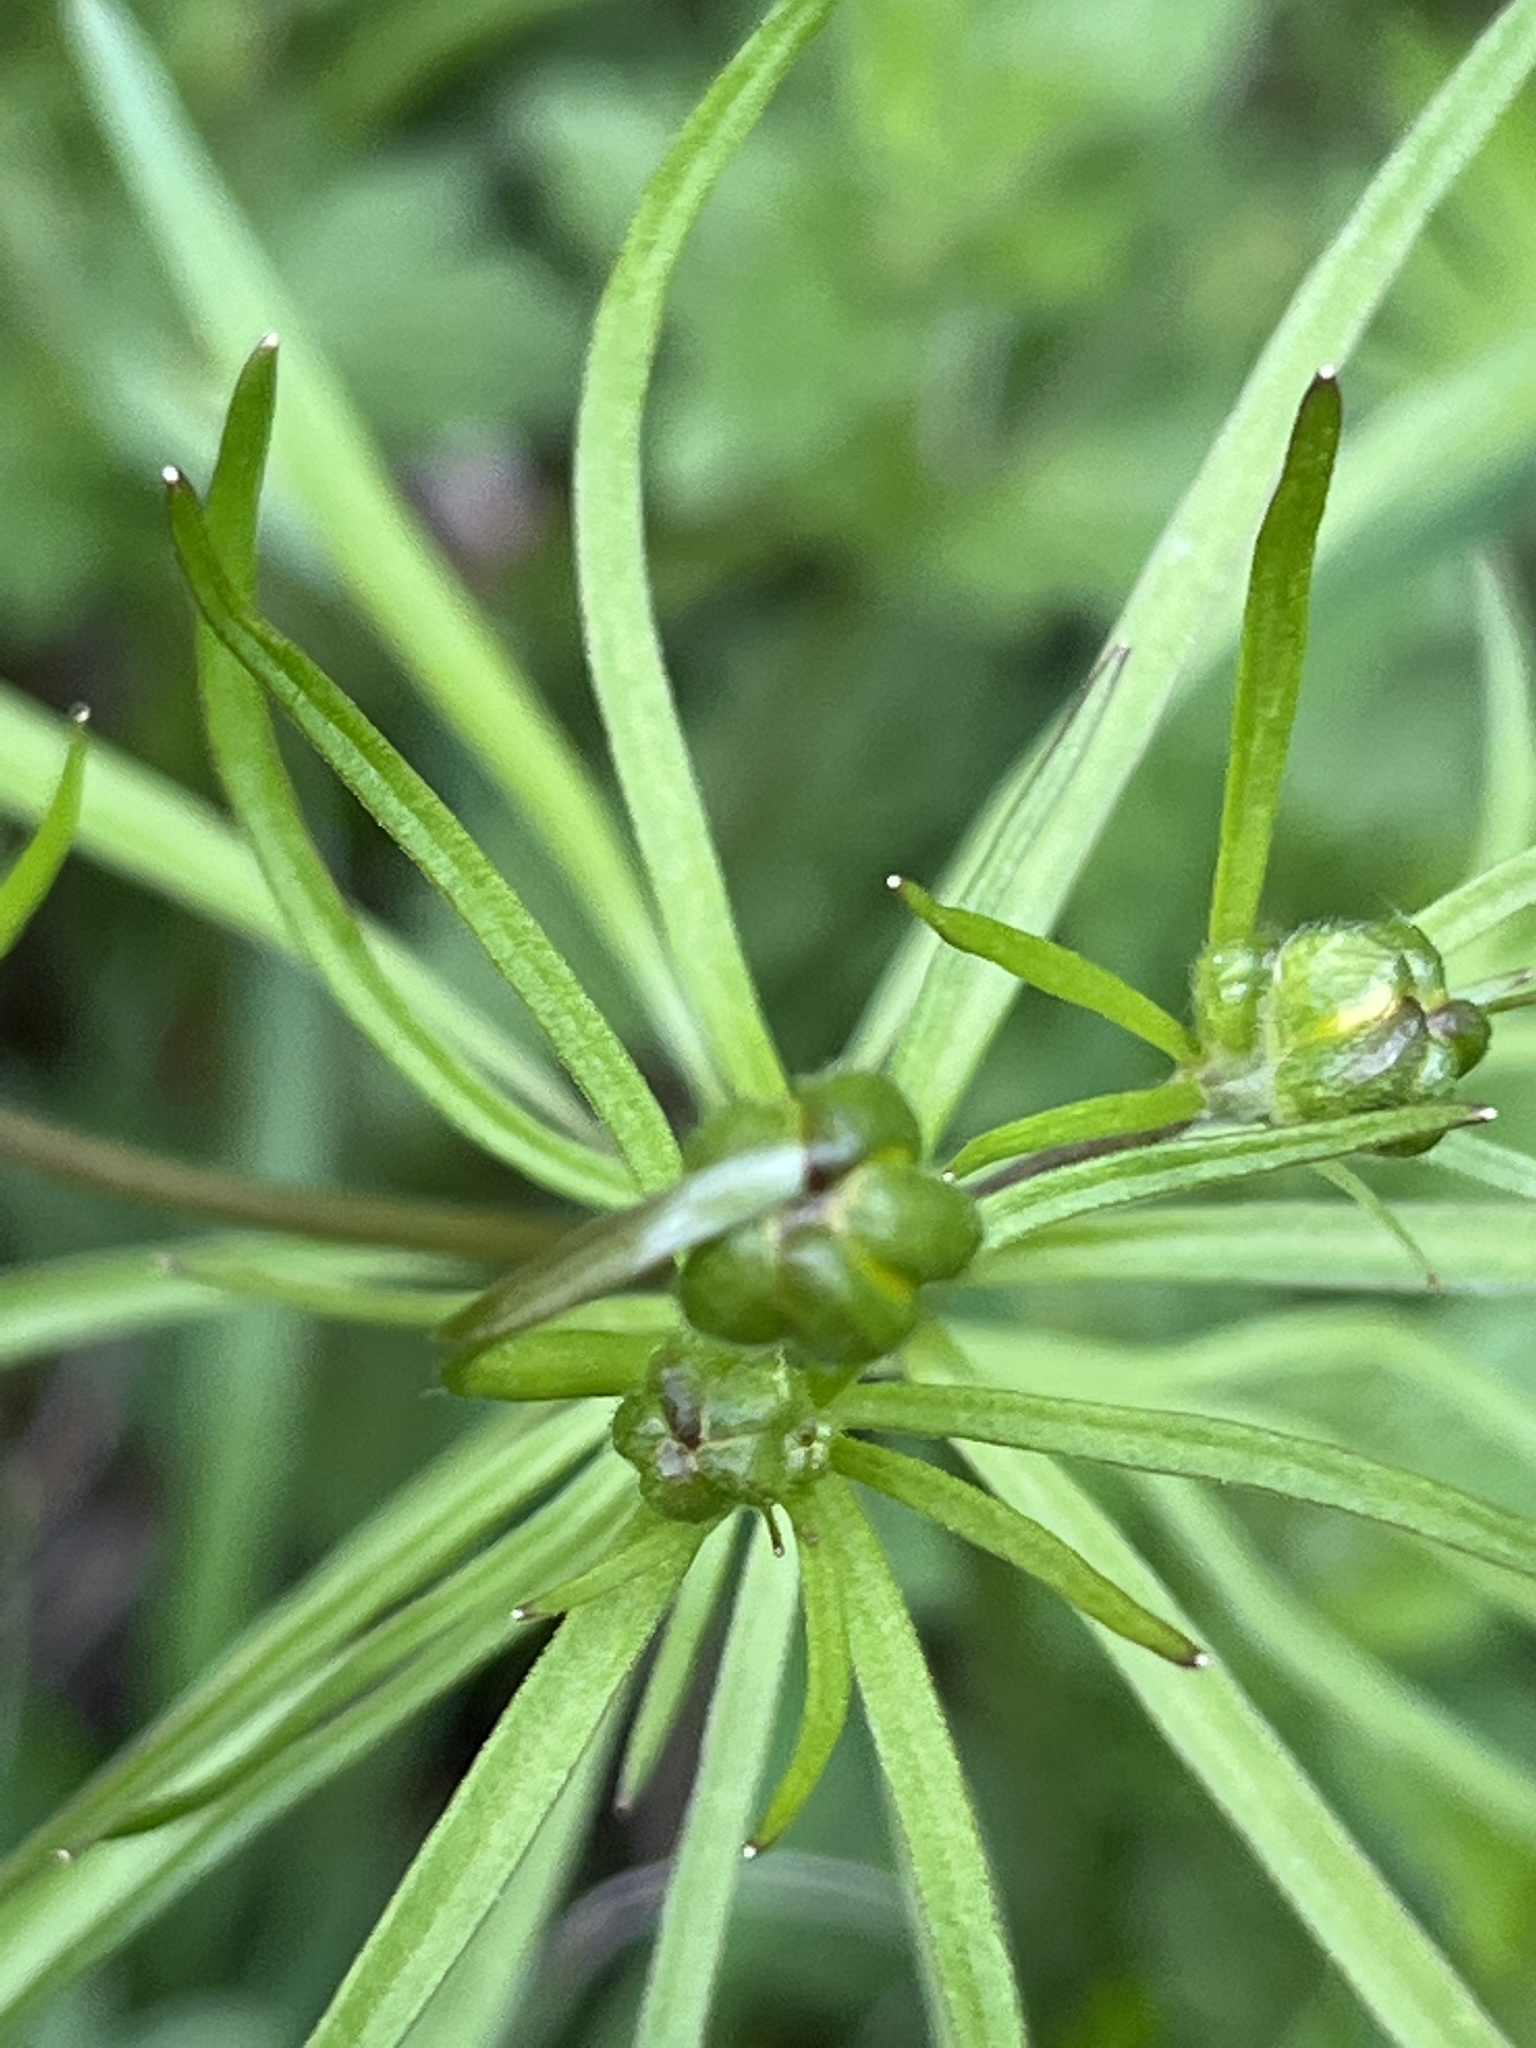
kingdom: Plantae
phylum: Tracheophyta
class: Magnoliopsida
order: Ranunculales
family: Ranunculaceae
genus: Ranunculus
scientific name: Ranunculus auricomus
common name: Goldilocks buttercup
